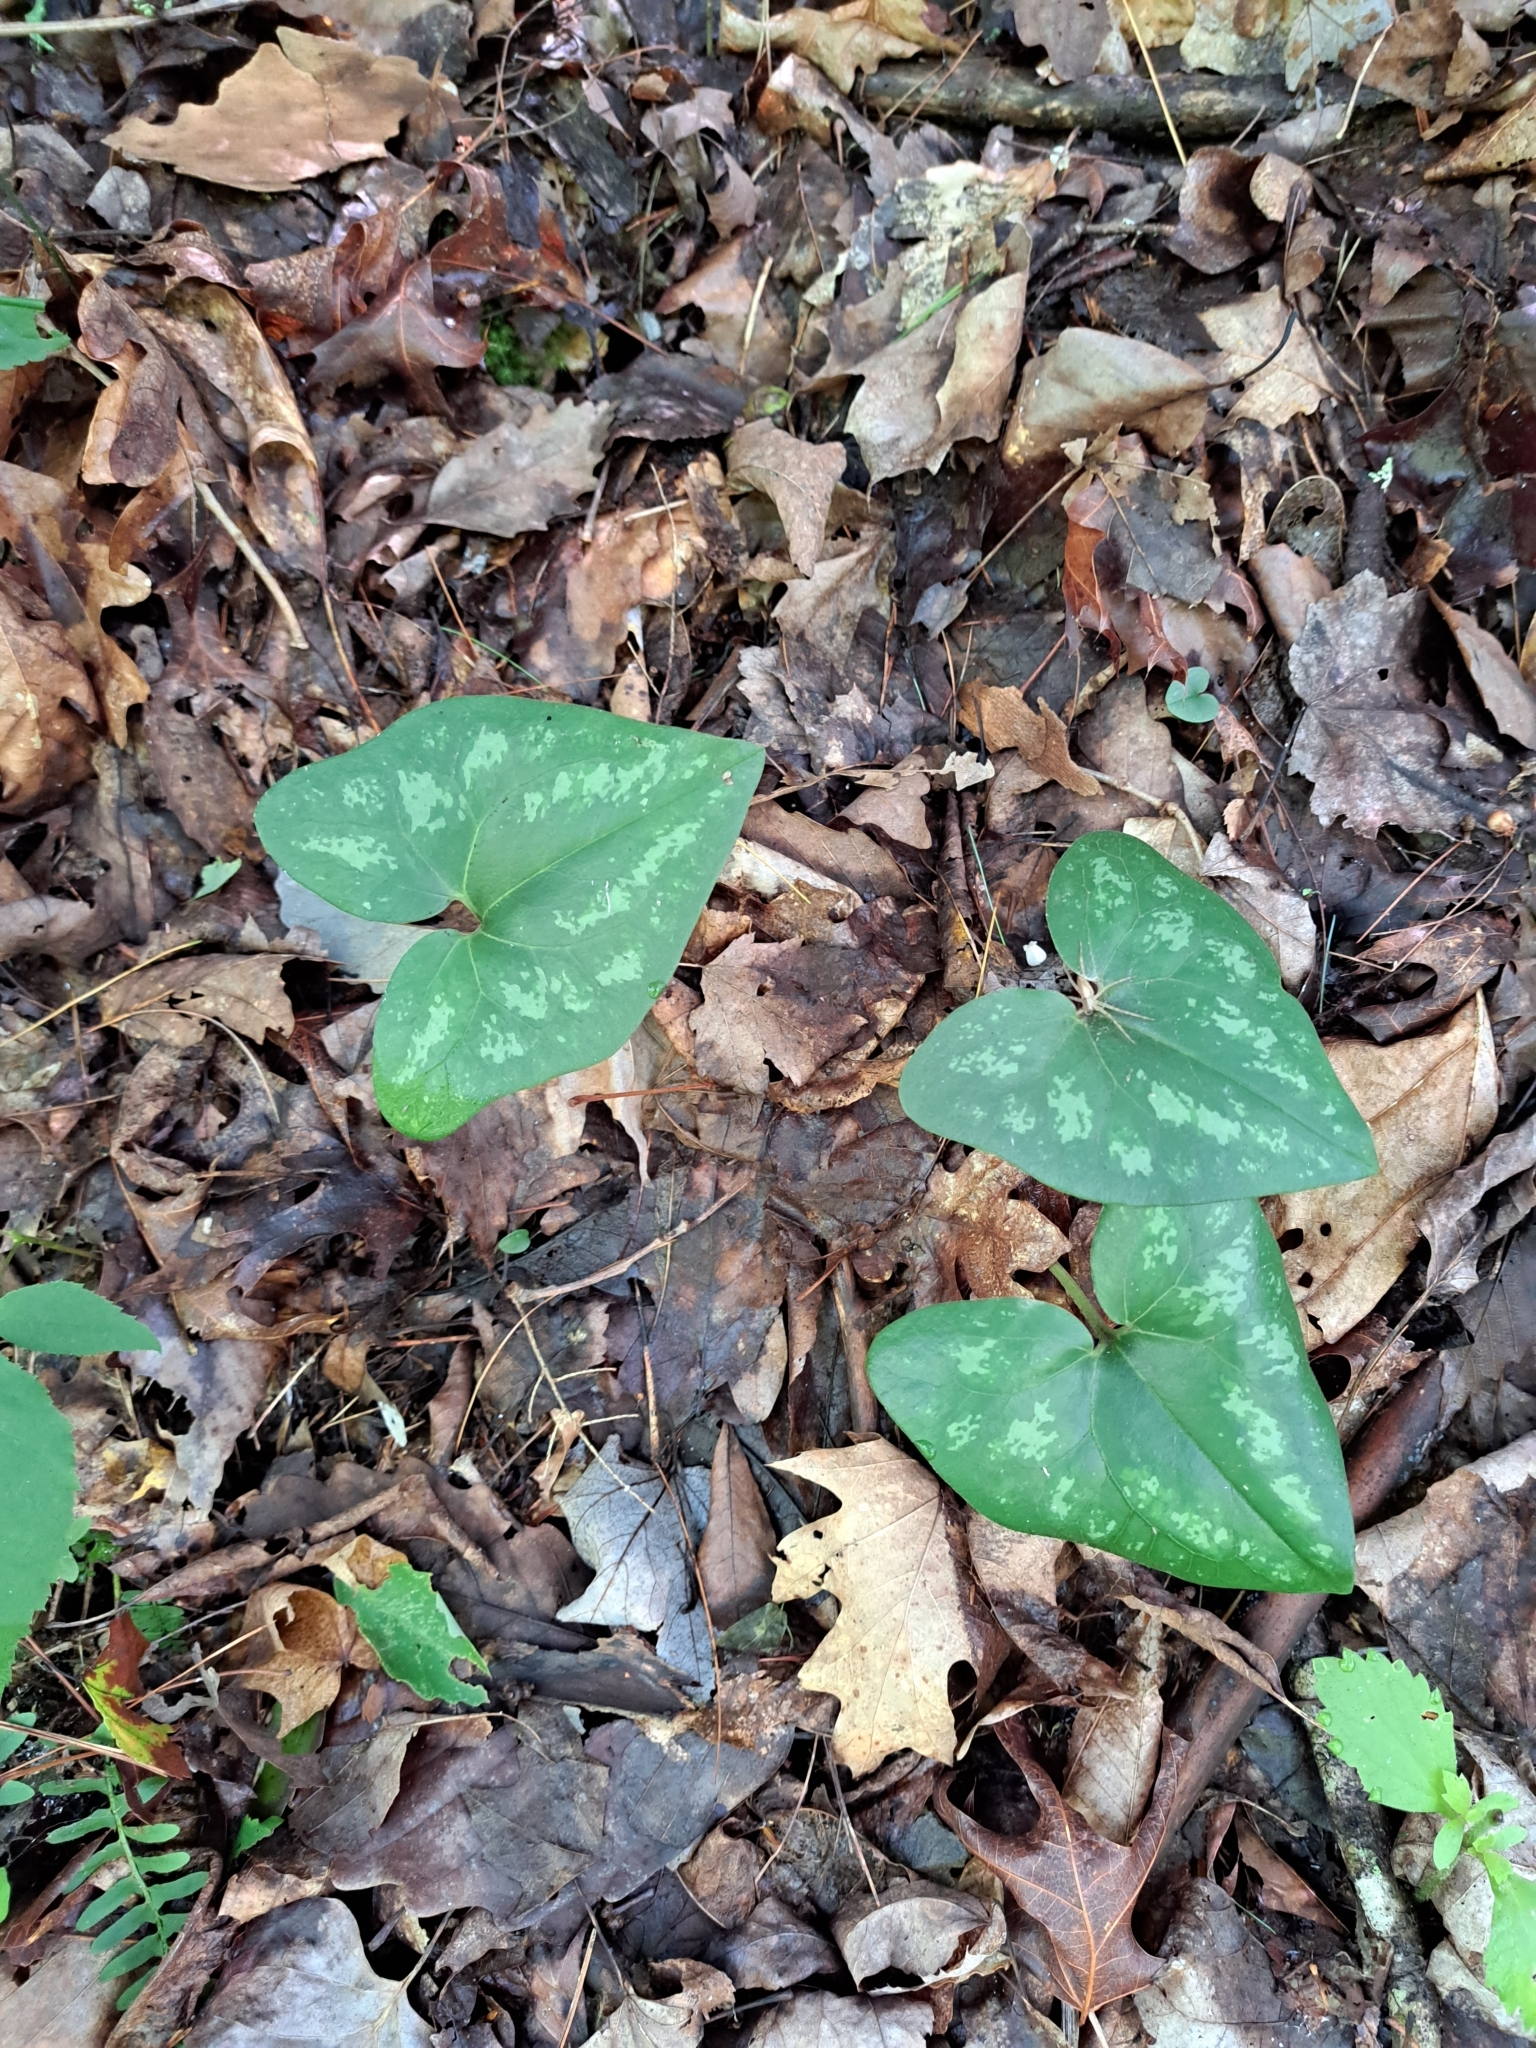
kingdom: Plantae
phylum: Tracheophyta
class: Magnoliopsida
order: Piperales
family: Aristolochiaceae
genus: Hexastylis
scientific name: Hexastylis arifolia
